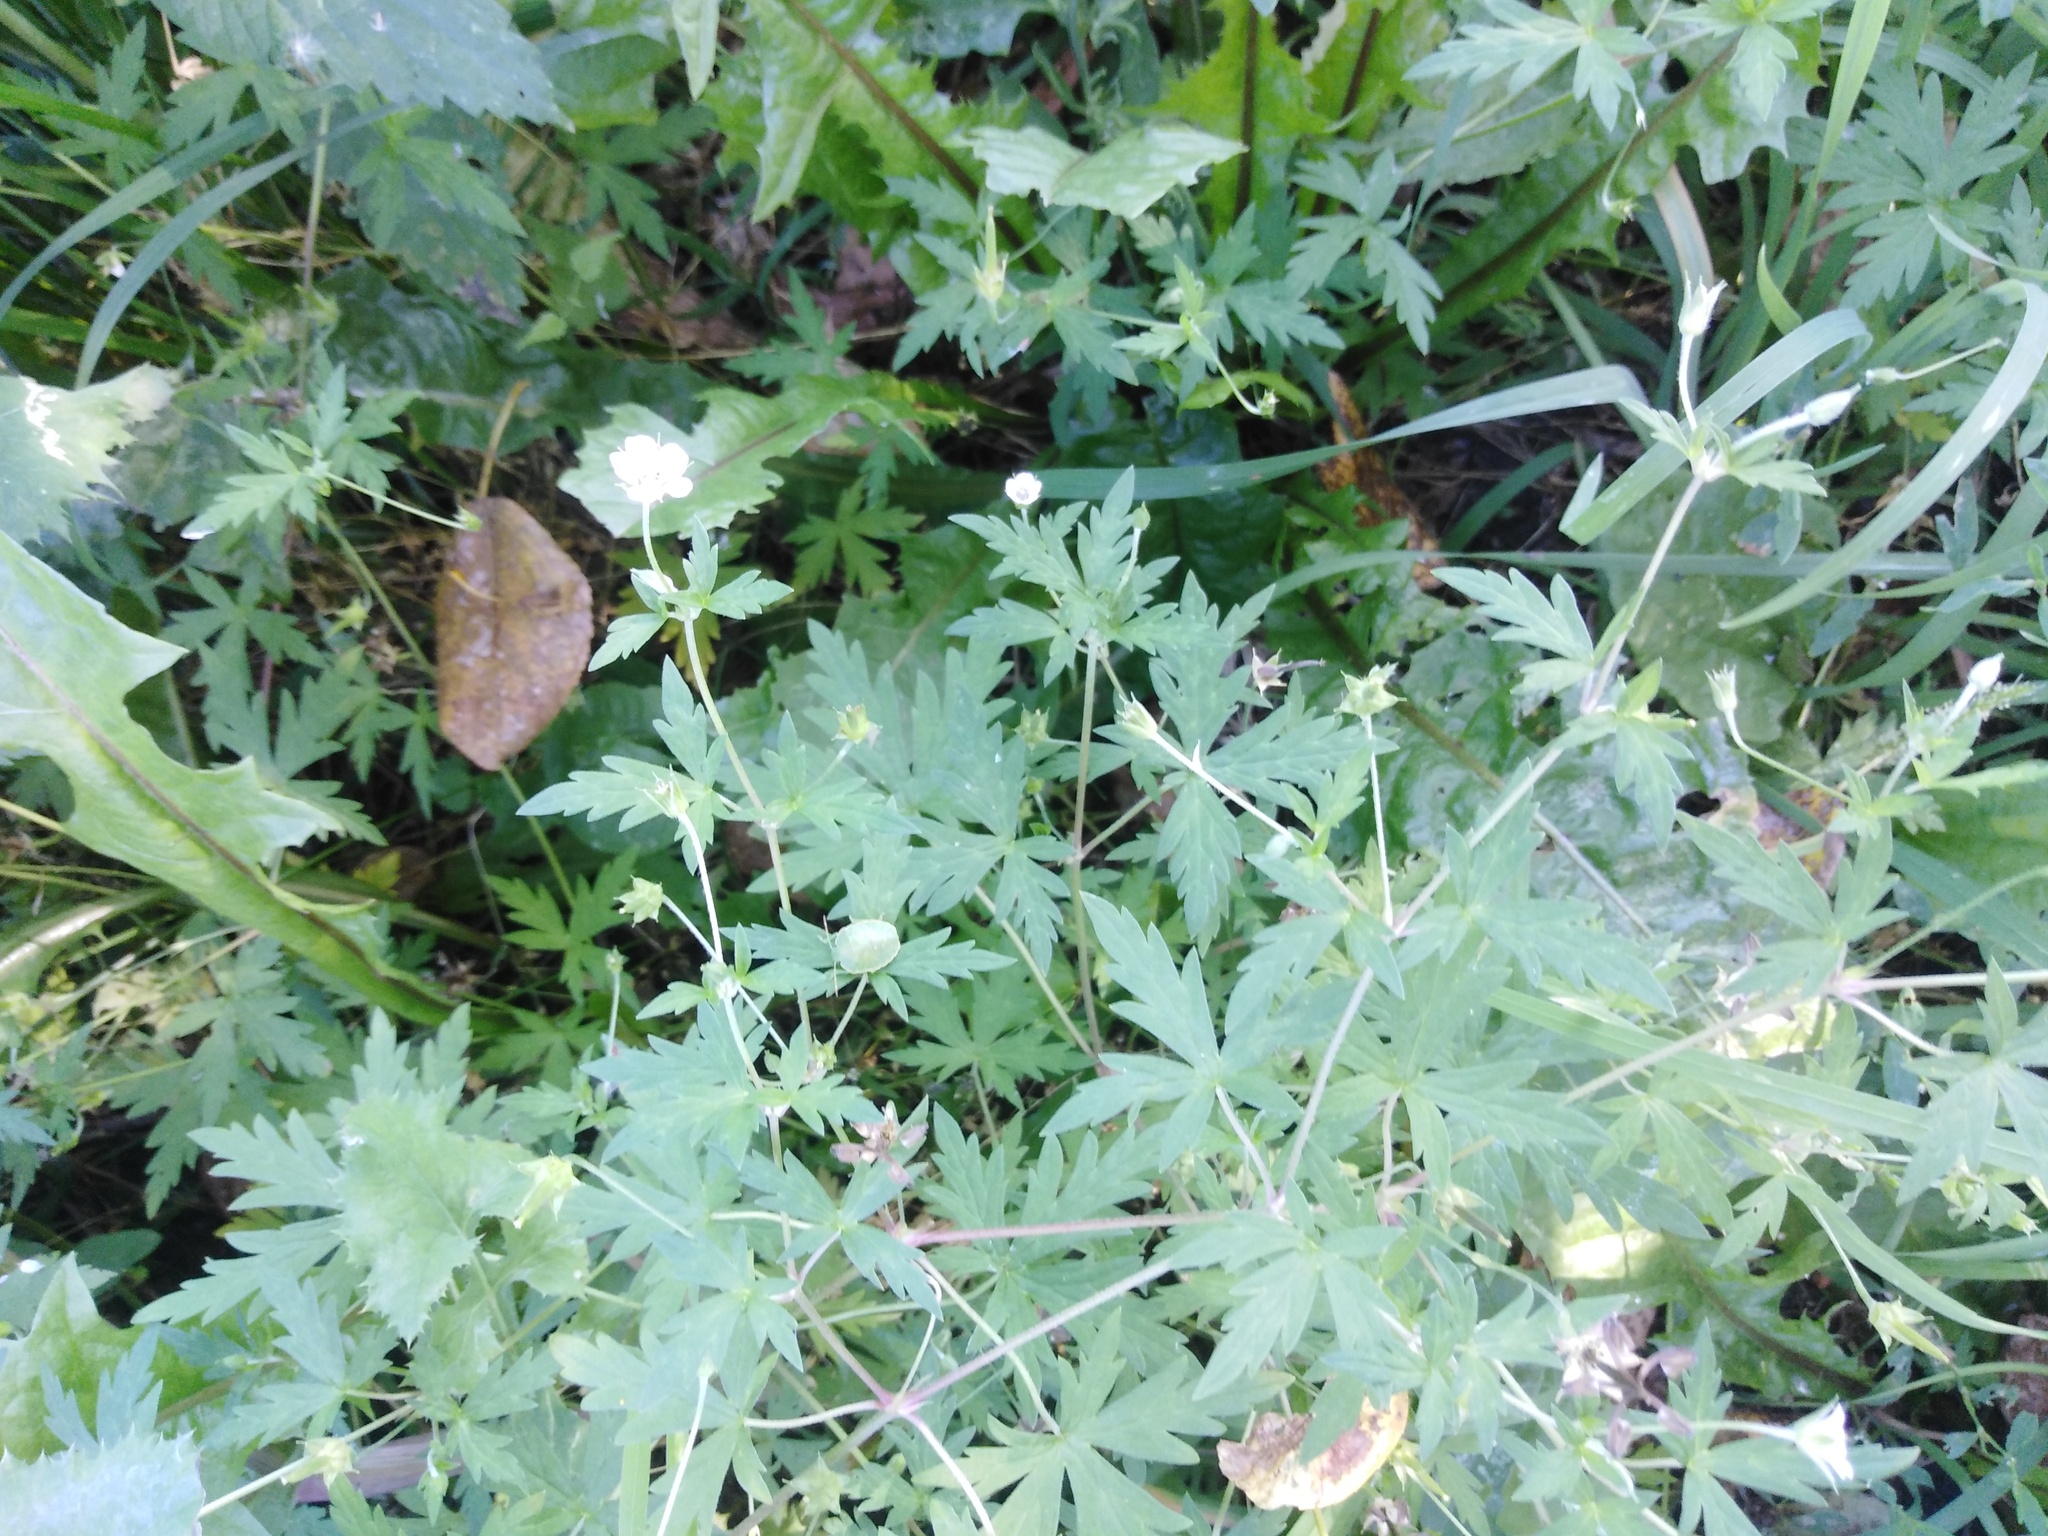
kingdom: Plantae
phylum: Tracheophyta
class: Magnoliopsida
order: Geraniales
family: Geraniaceae
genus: Geranium
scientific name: Geranium sibiricum
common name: Siberian crane's-bill
